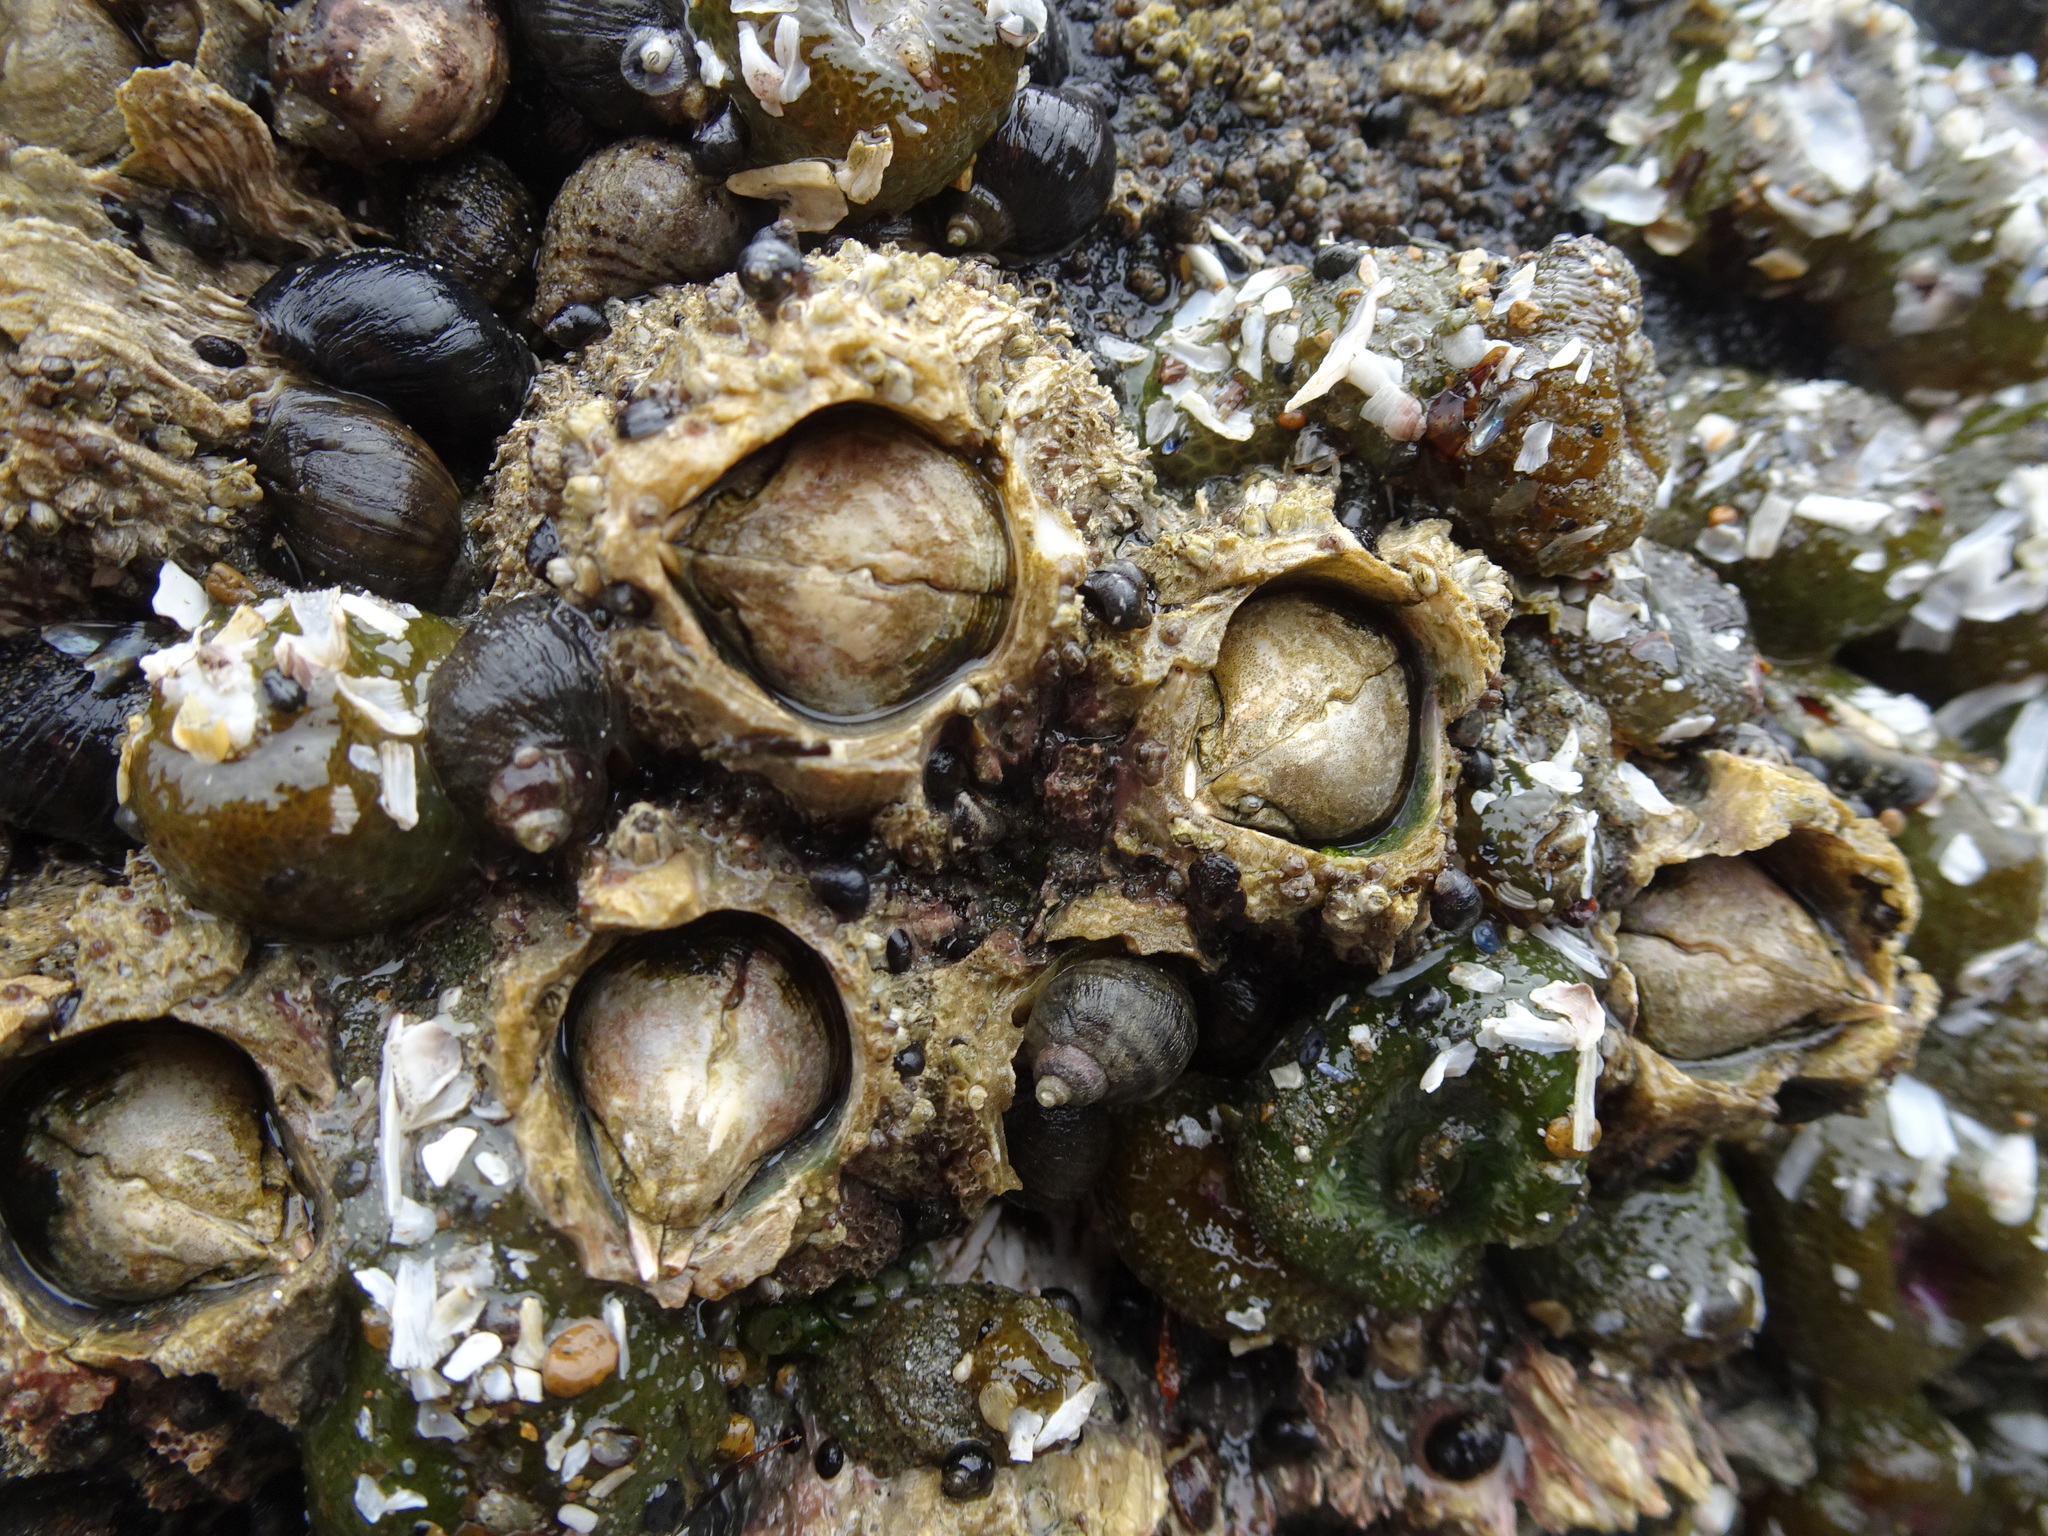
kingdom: Animalia
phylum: Arthropoda
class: Maxillopoda
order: Sessilia
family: Archaeobalanidae
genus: Semibalanus
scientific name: Semibalanus cariosus
